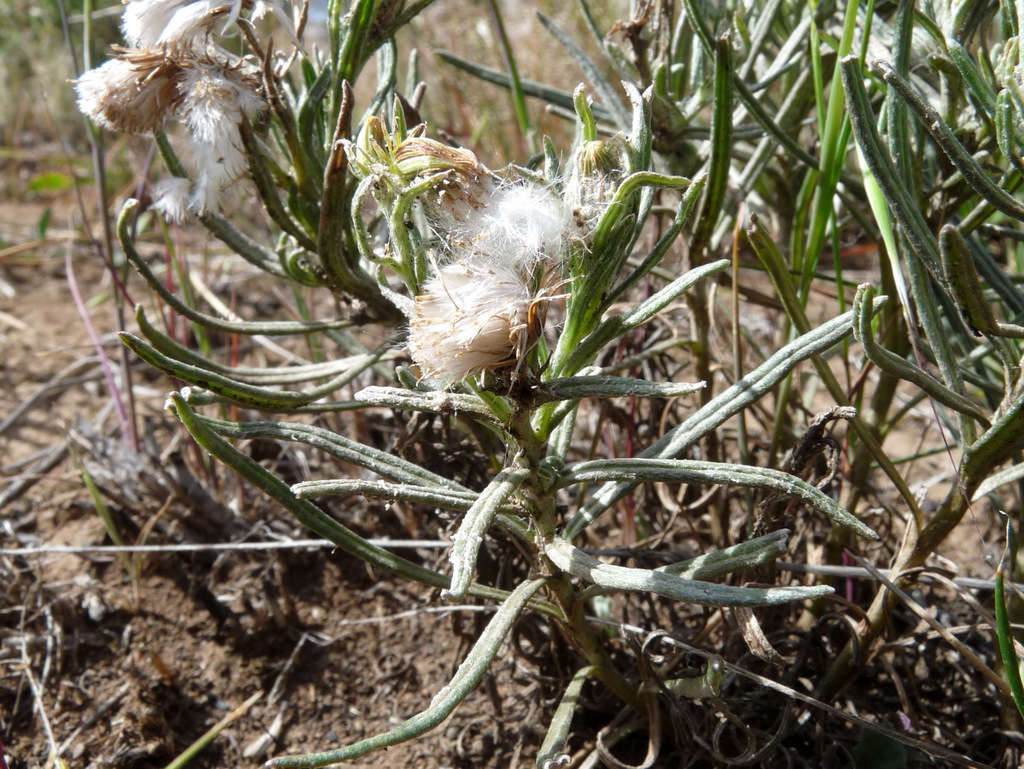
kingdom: Plantae
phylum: Tracheophyta
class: Magnoliopsida
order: Asterales
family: Asteraceae
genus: Senecio
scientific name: Senecio macrocarpus
